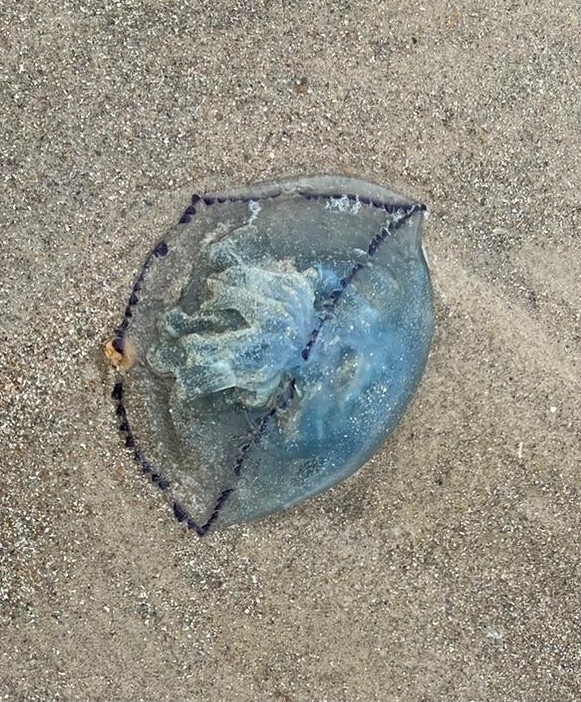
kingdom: Animalia
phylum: Cnidaria
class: Scyphozoa
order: Rhizostomeae
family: Rhizostomatidae
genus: Rhizostoma
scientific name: Rhizostoma octopus
